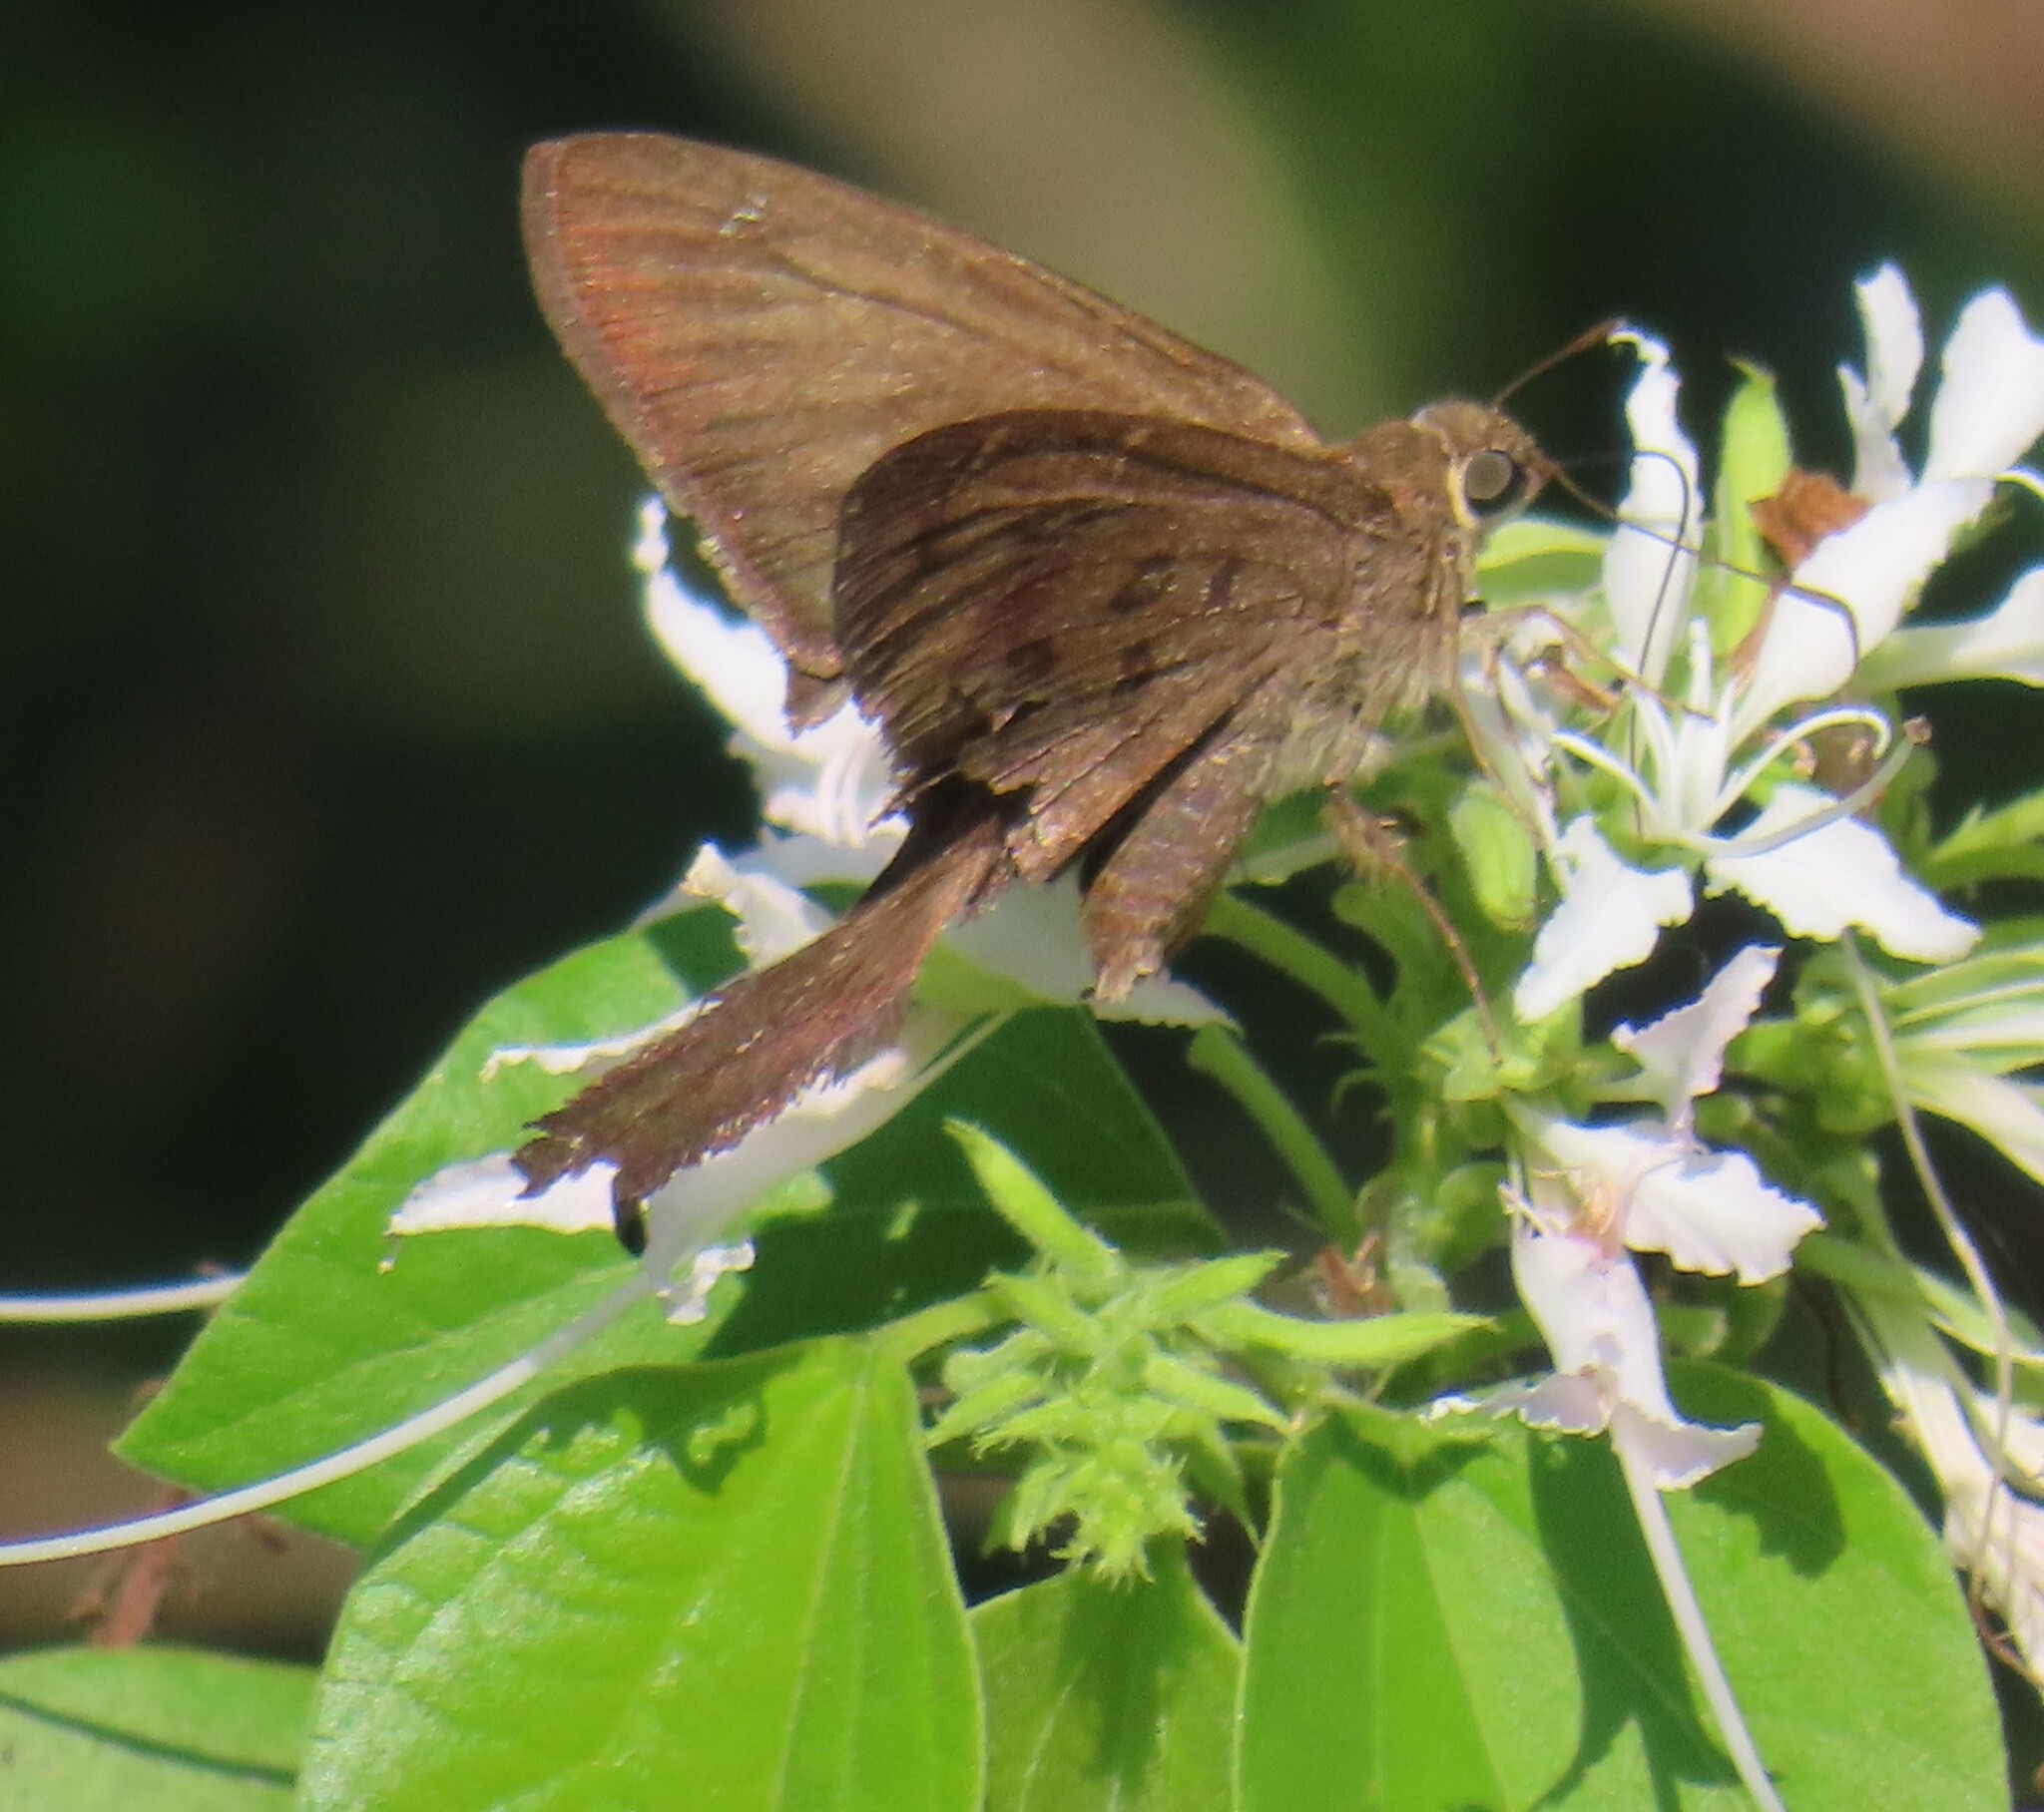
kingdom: Animalia
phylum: Arthropoda
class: Insecta
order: Lepidoptera
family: Hesperiidae
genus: Urbanus
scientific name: Urbanus procne
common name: Brown longtail
